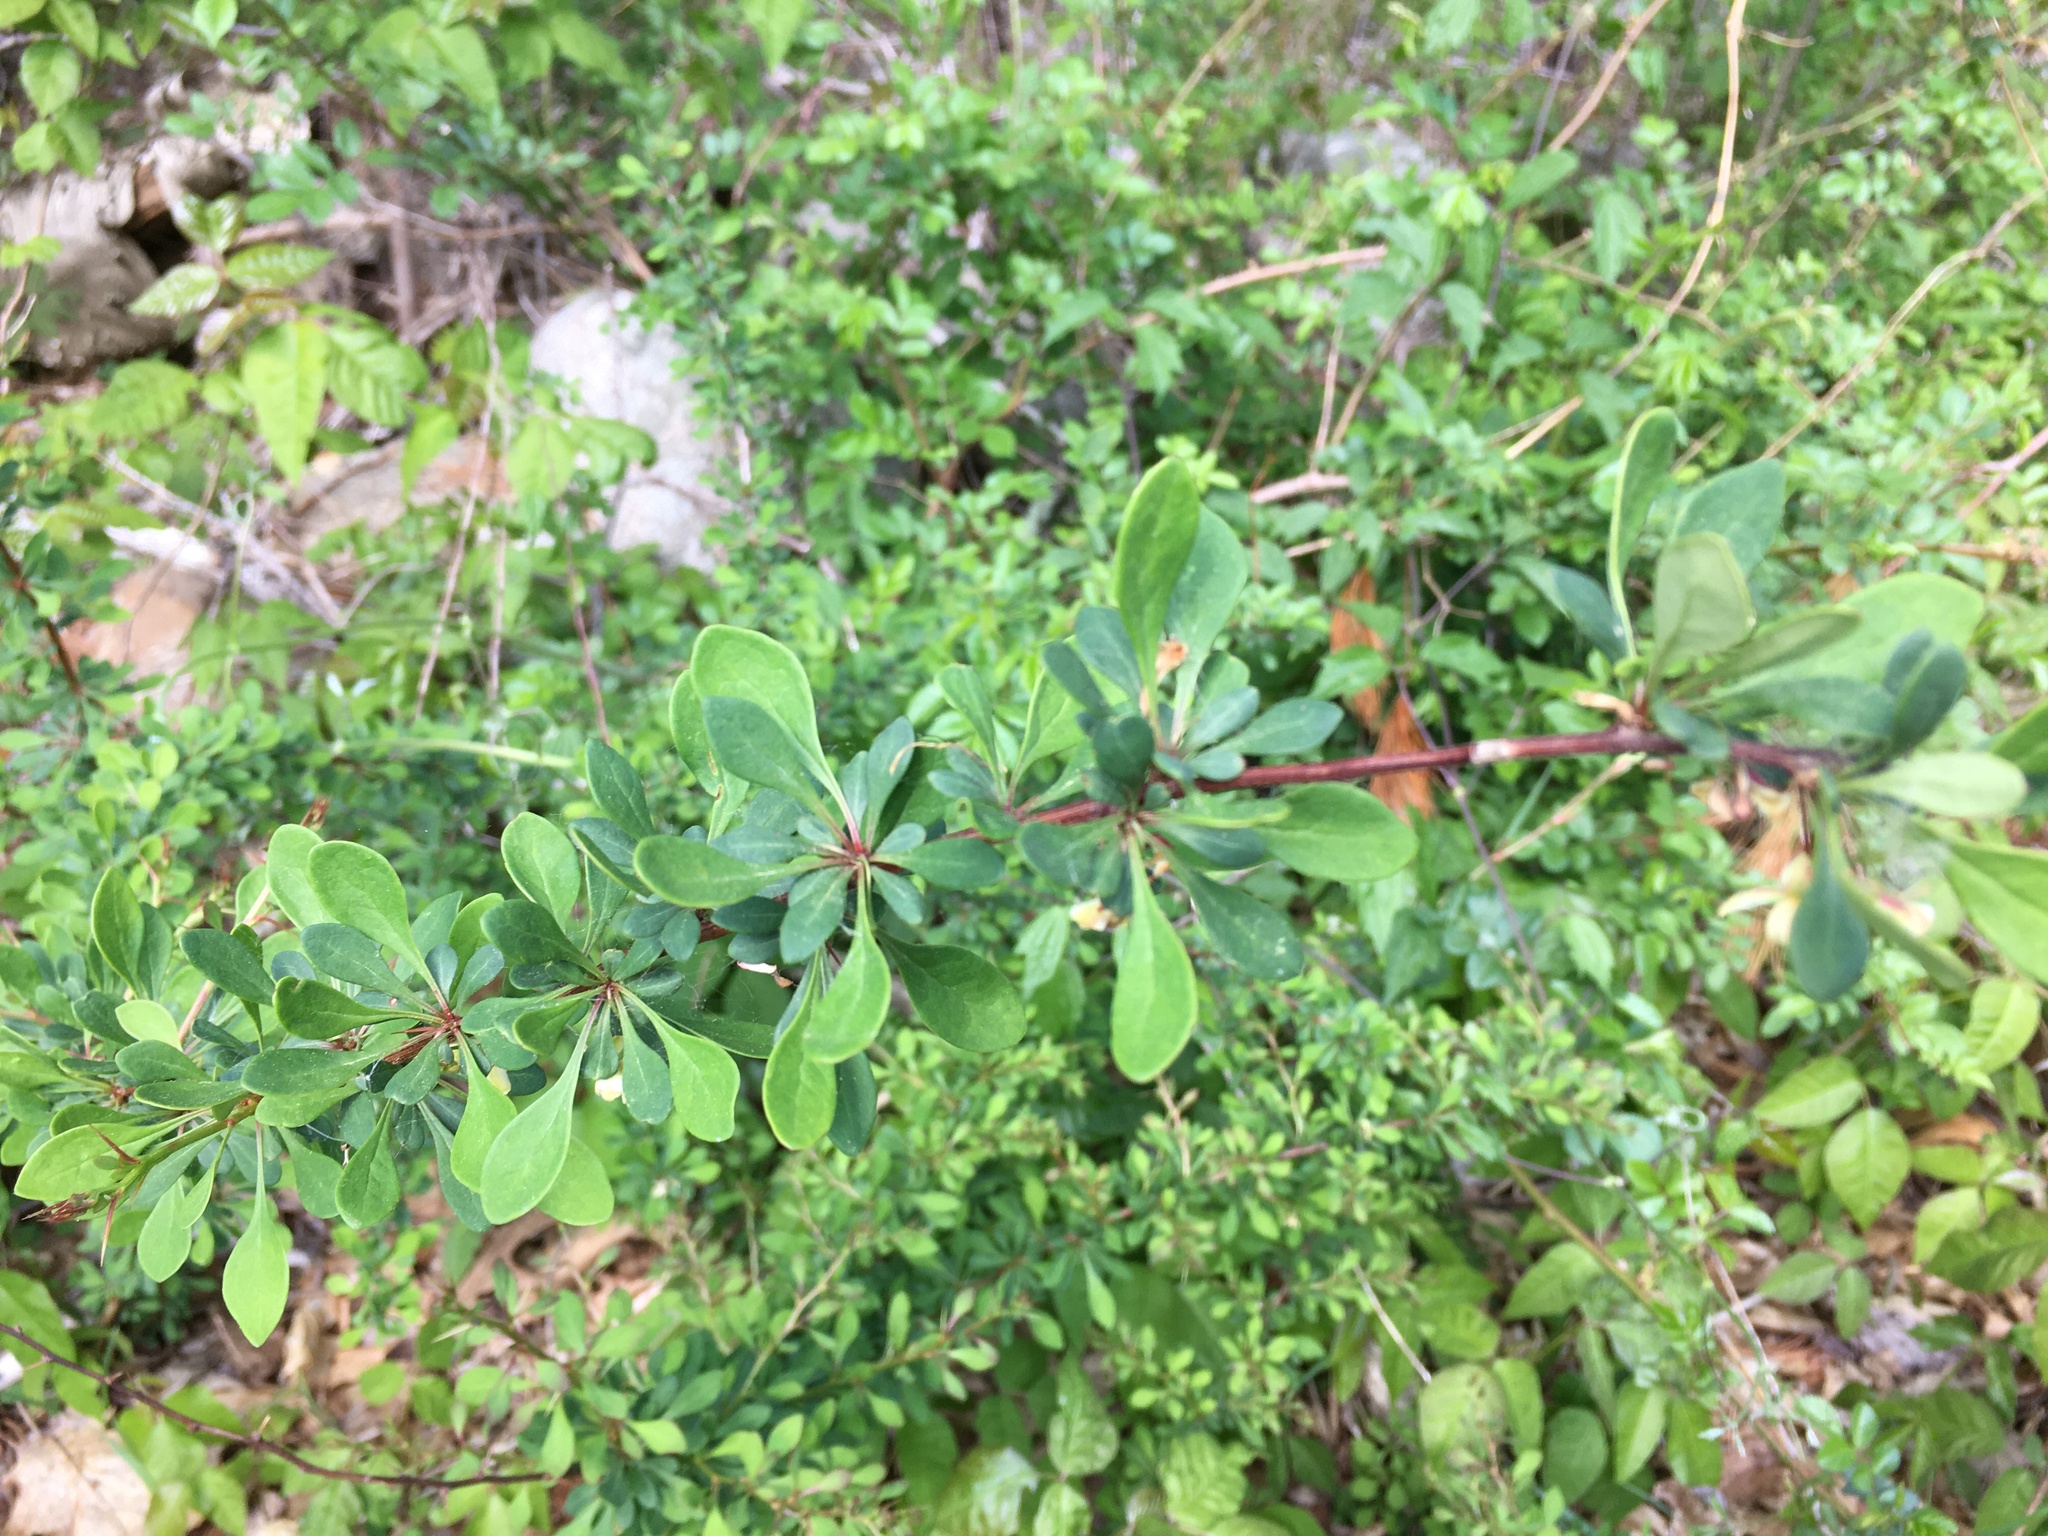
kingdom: Plantae
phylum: Tracheophyta
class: Magnoliopsida
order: Ranunculales
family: Berberidaceae
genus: Berberis
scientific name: Berberis thunbergii
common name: Japanese barberry
